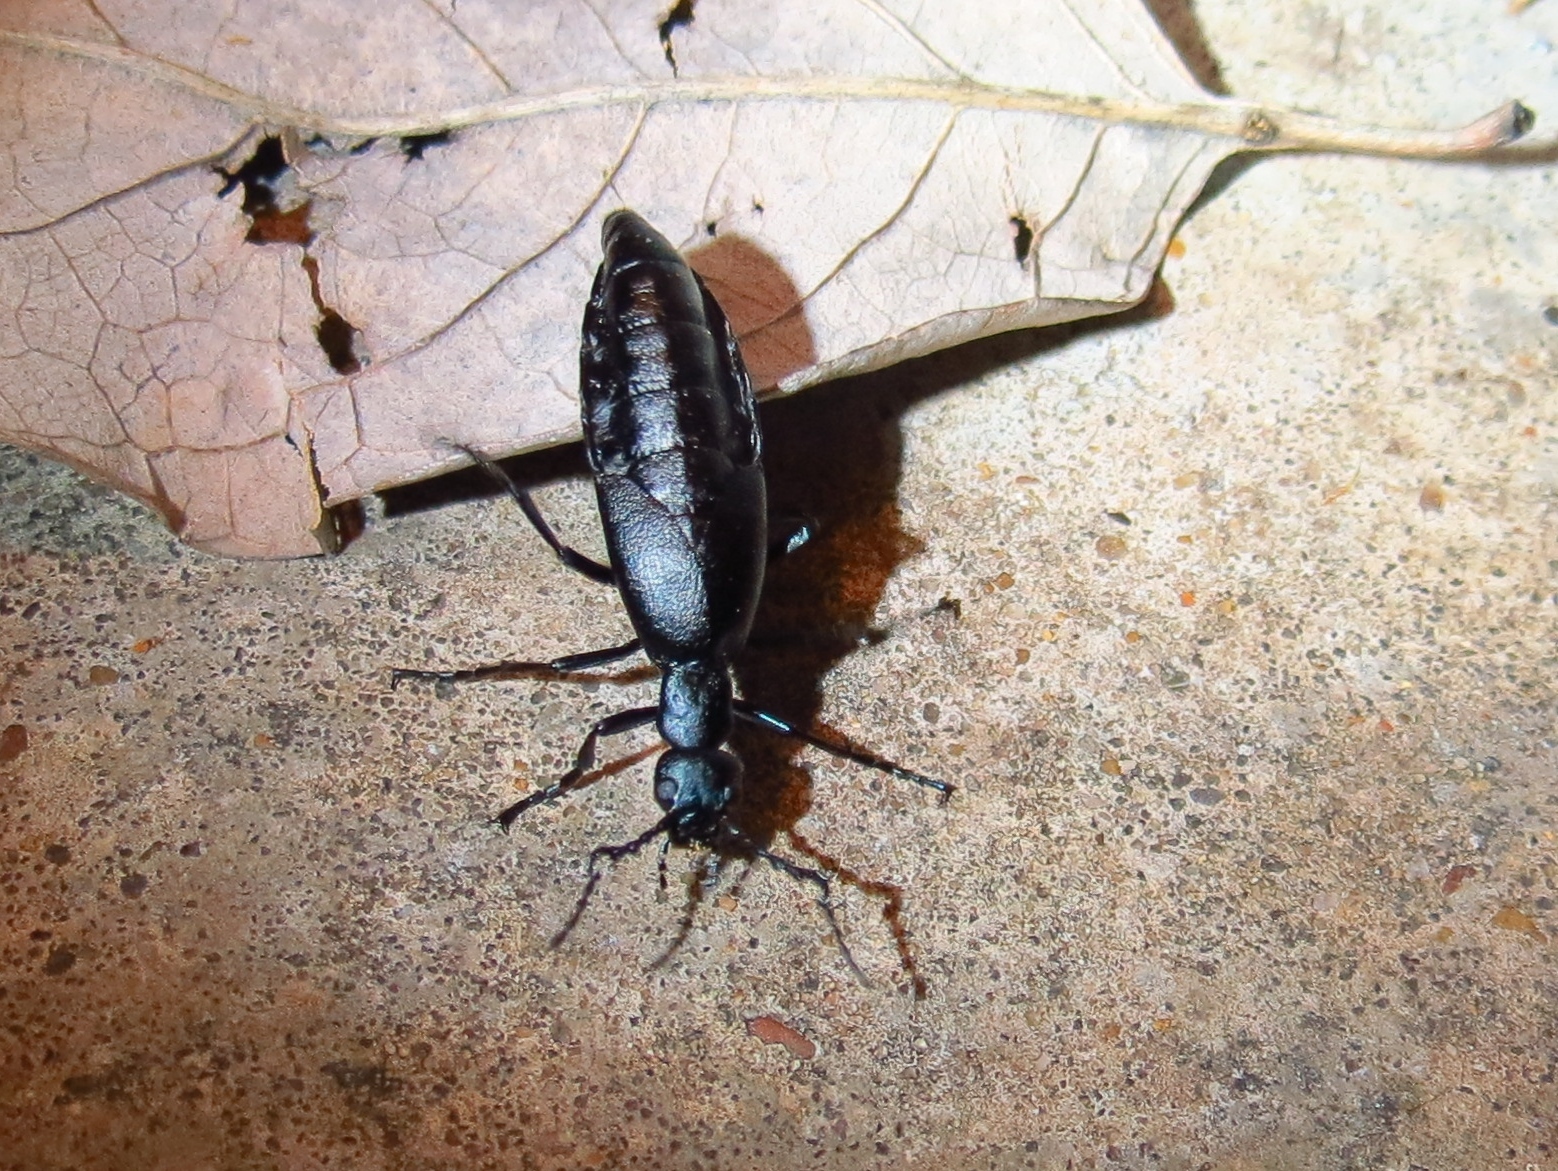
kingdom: Animalia
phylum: Arthropoda
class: Insecta
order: Coleoptera
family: Meloidae
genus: Meloe
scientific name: Meloe americanus
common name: Buttercup oil beetle
